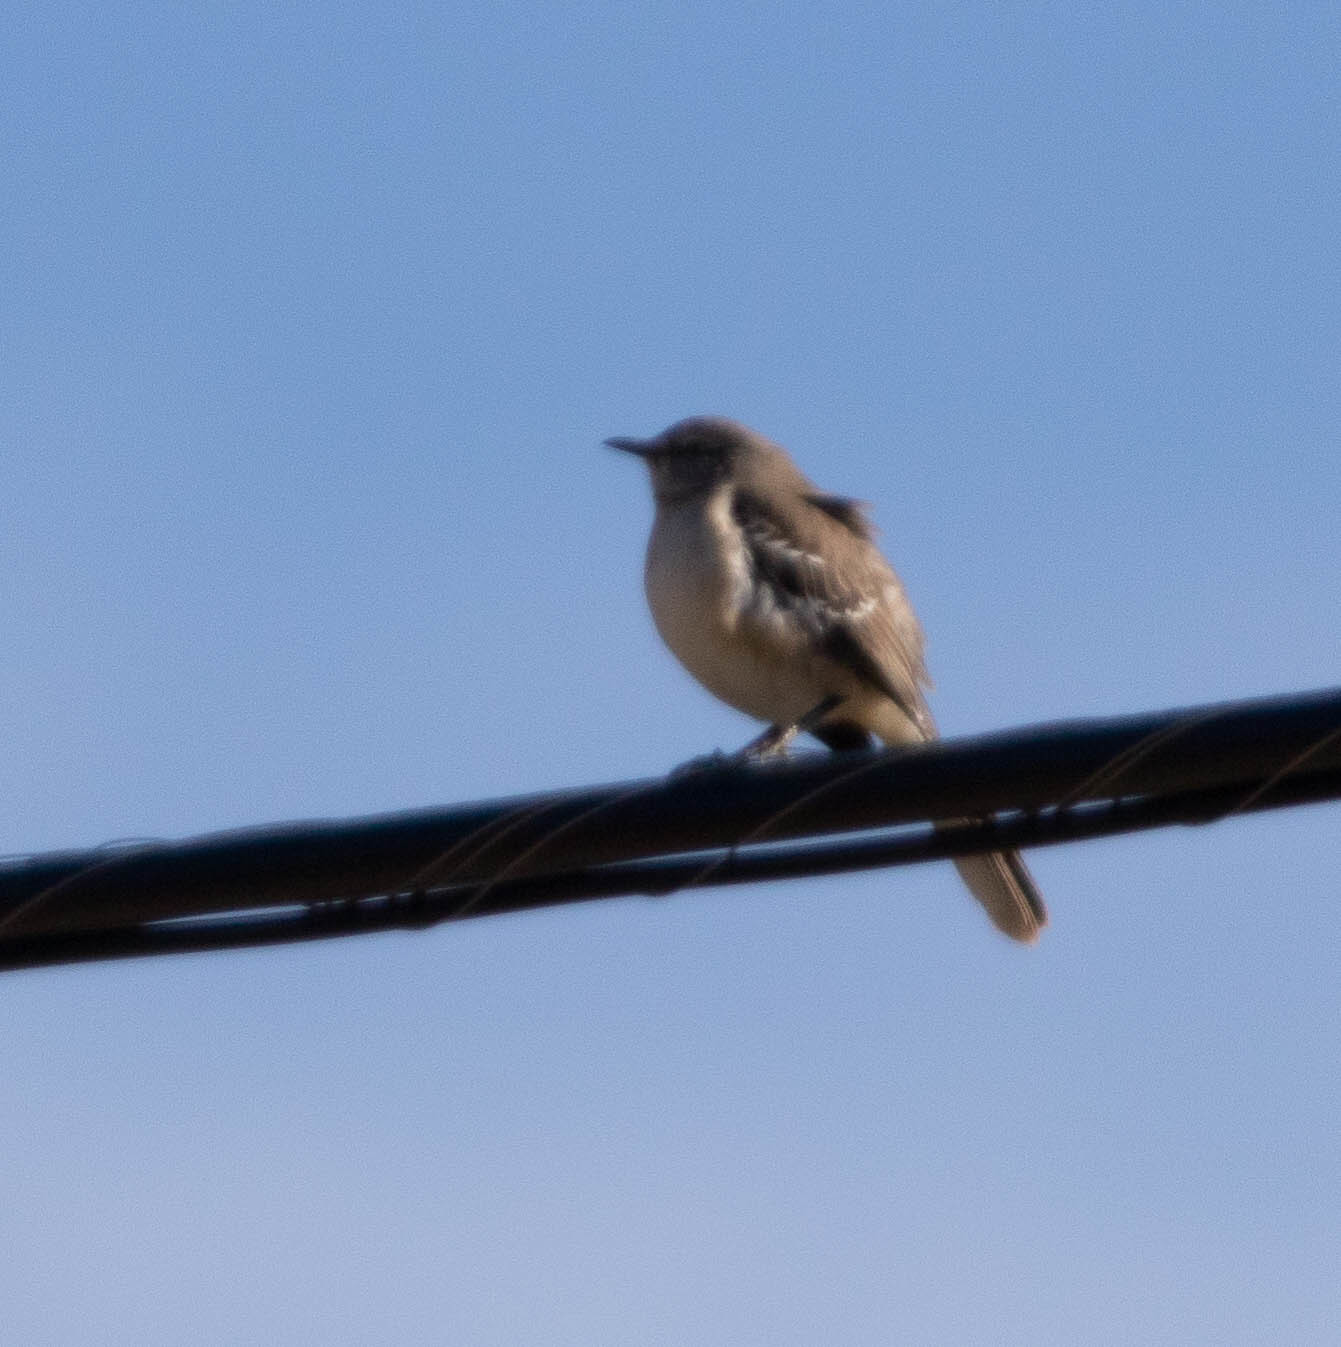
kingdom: Animalia
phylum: Chordata
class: Aves
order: Passeriformes
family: Mimidae
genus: Mimus
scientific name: Mimus polyglottos
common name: Northern mockingbird
